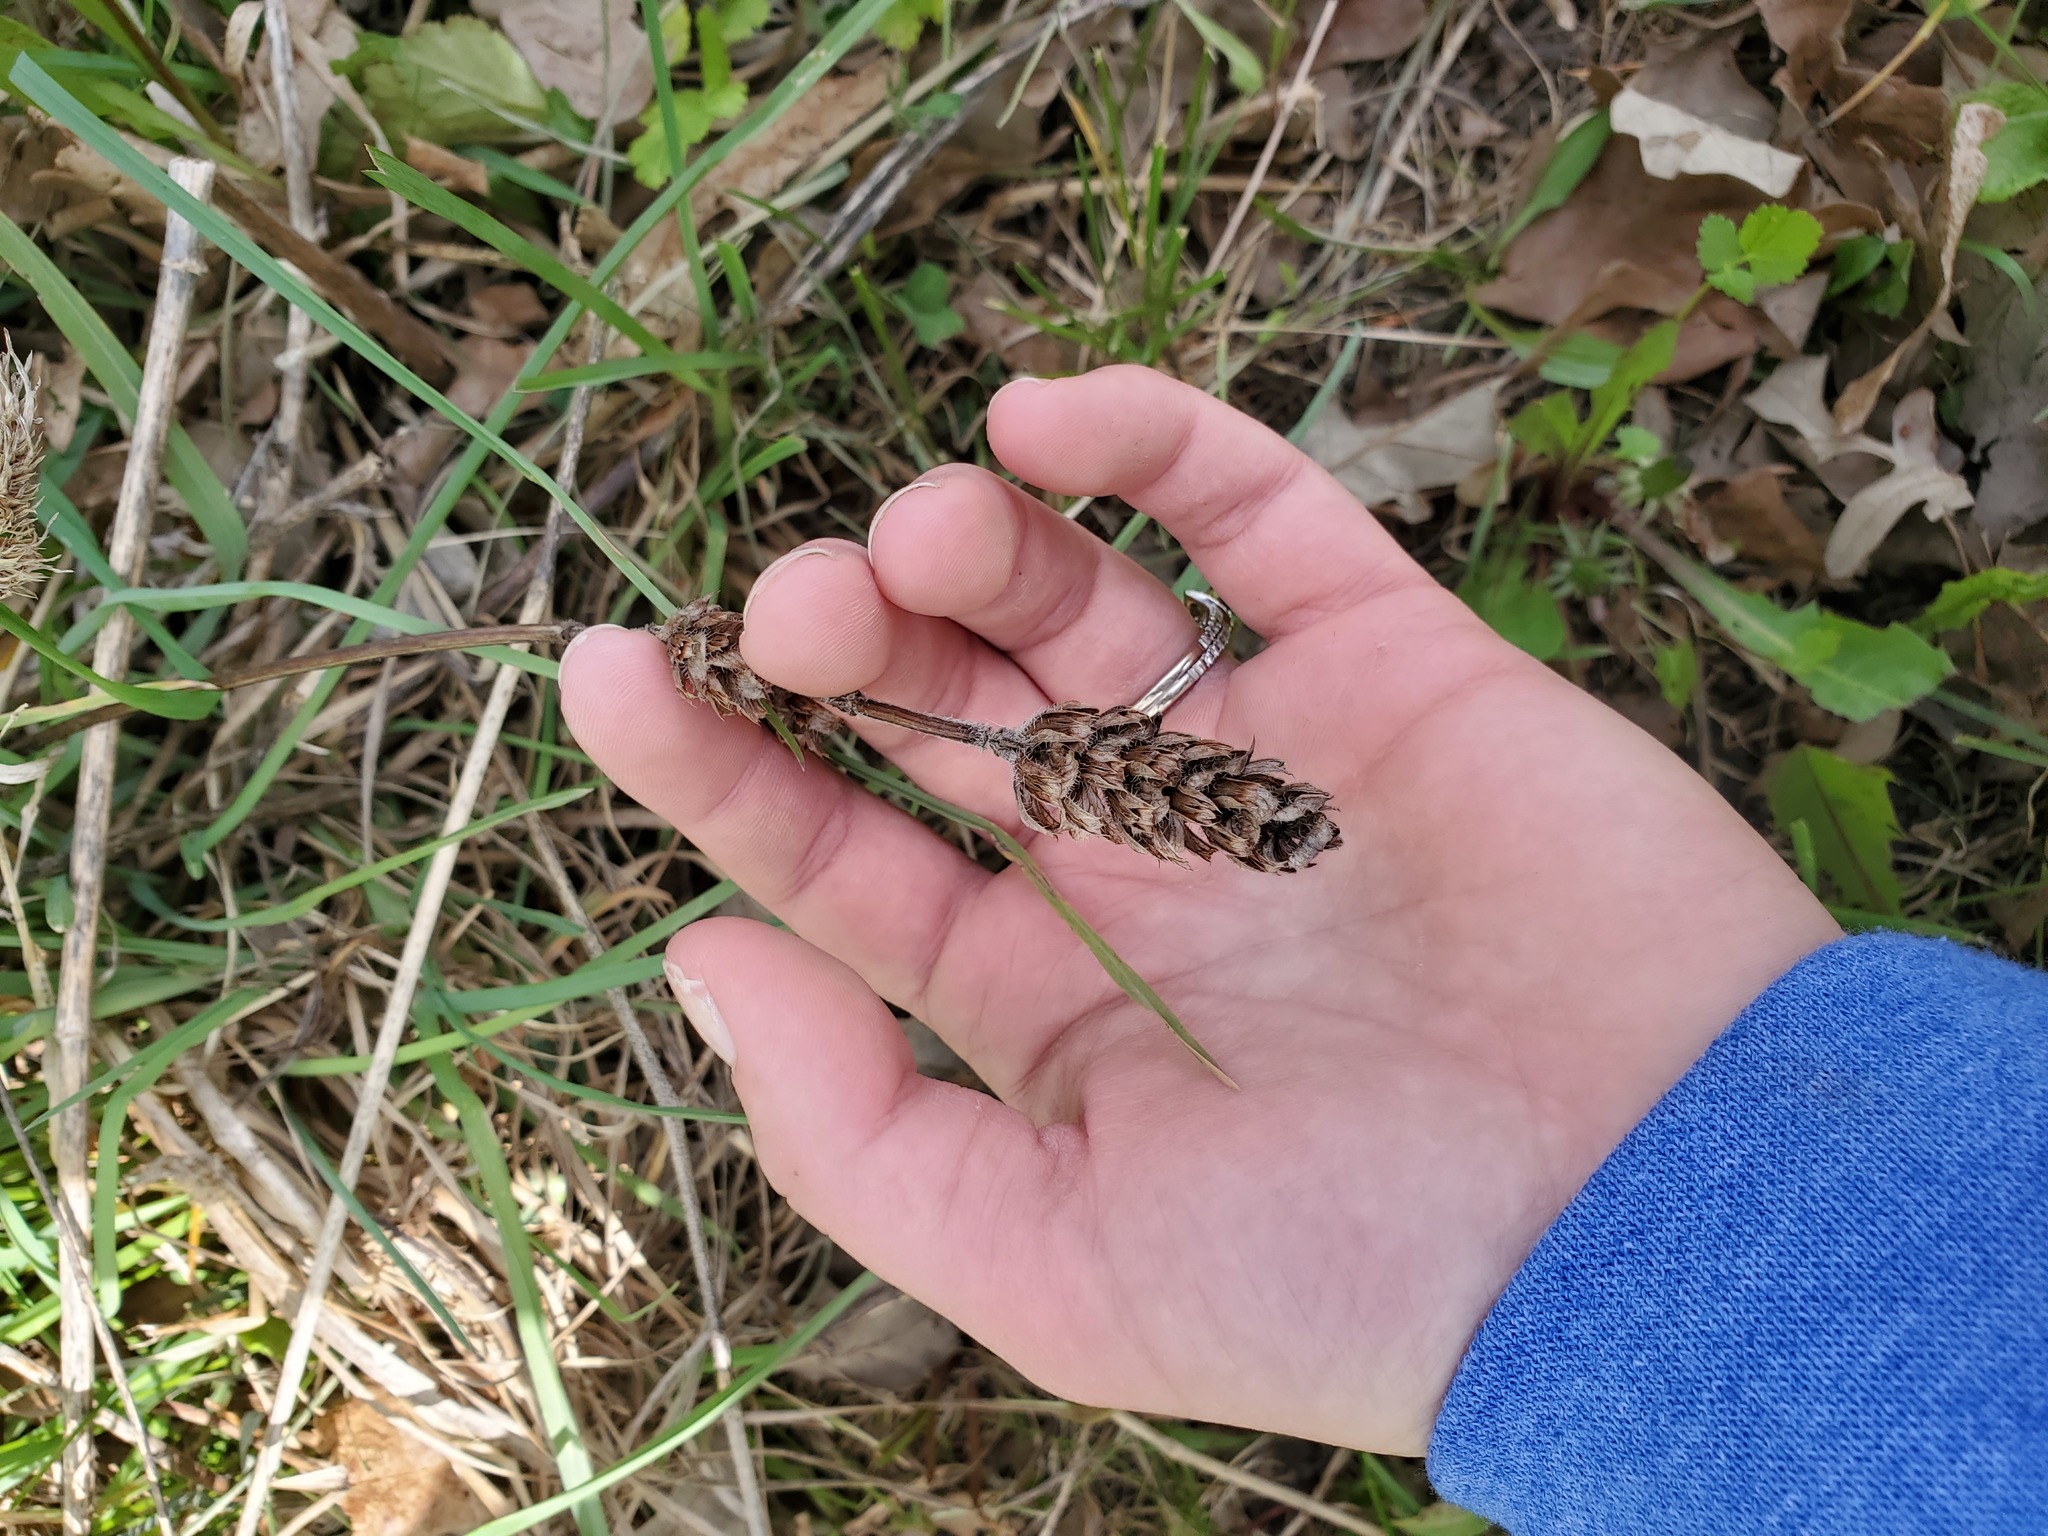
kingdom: Plantae
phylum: Tracheophyta
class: Magnoliopsida
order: Lamiales
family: Lamiaceae
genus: Prunella
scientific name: Prunella vulgaris
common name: Heal-all
